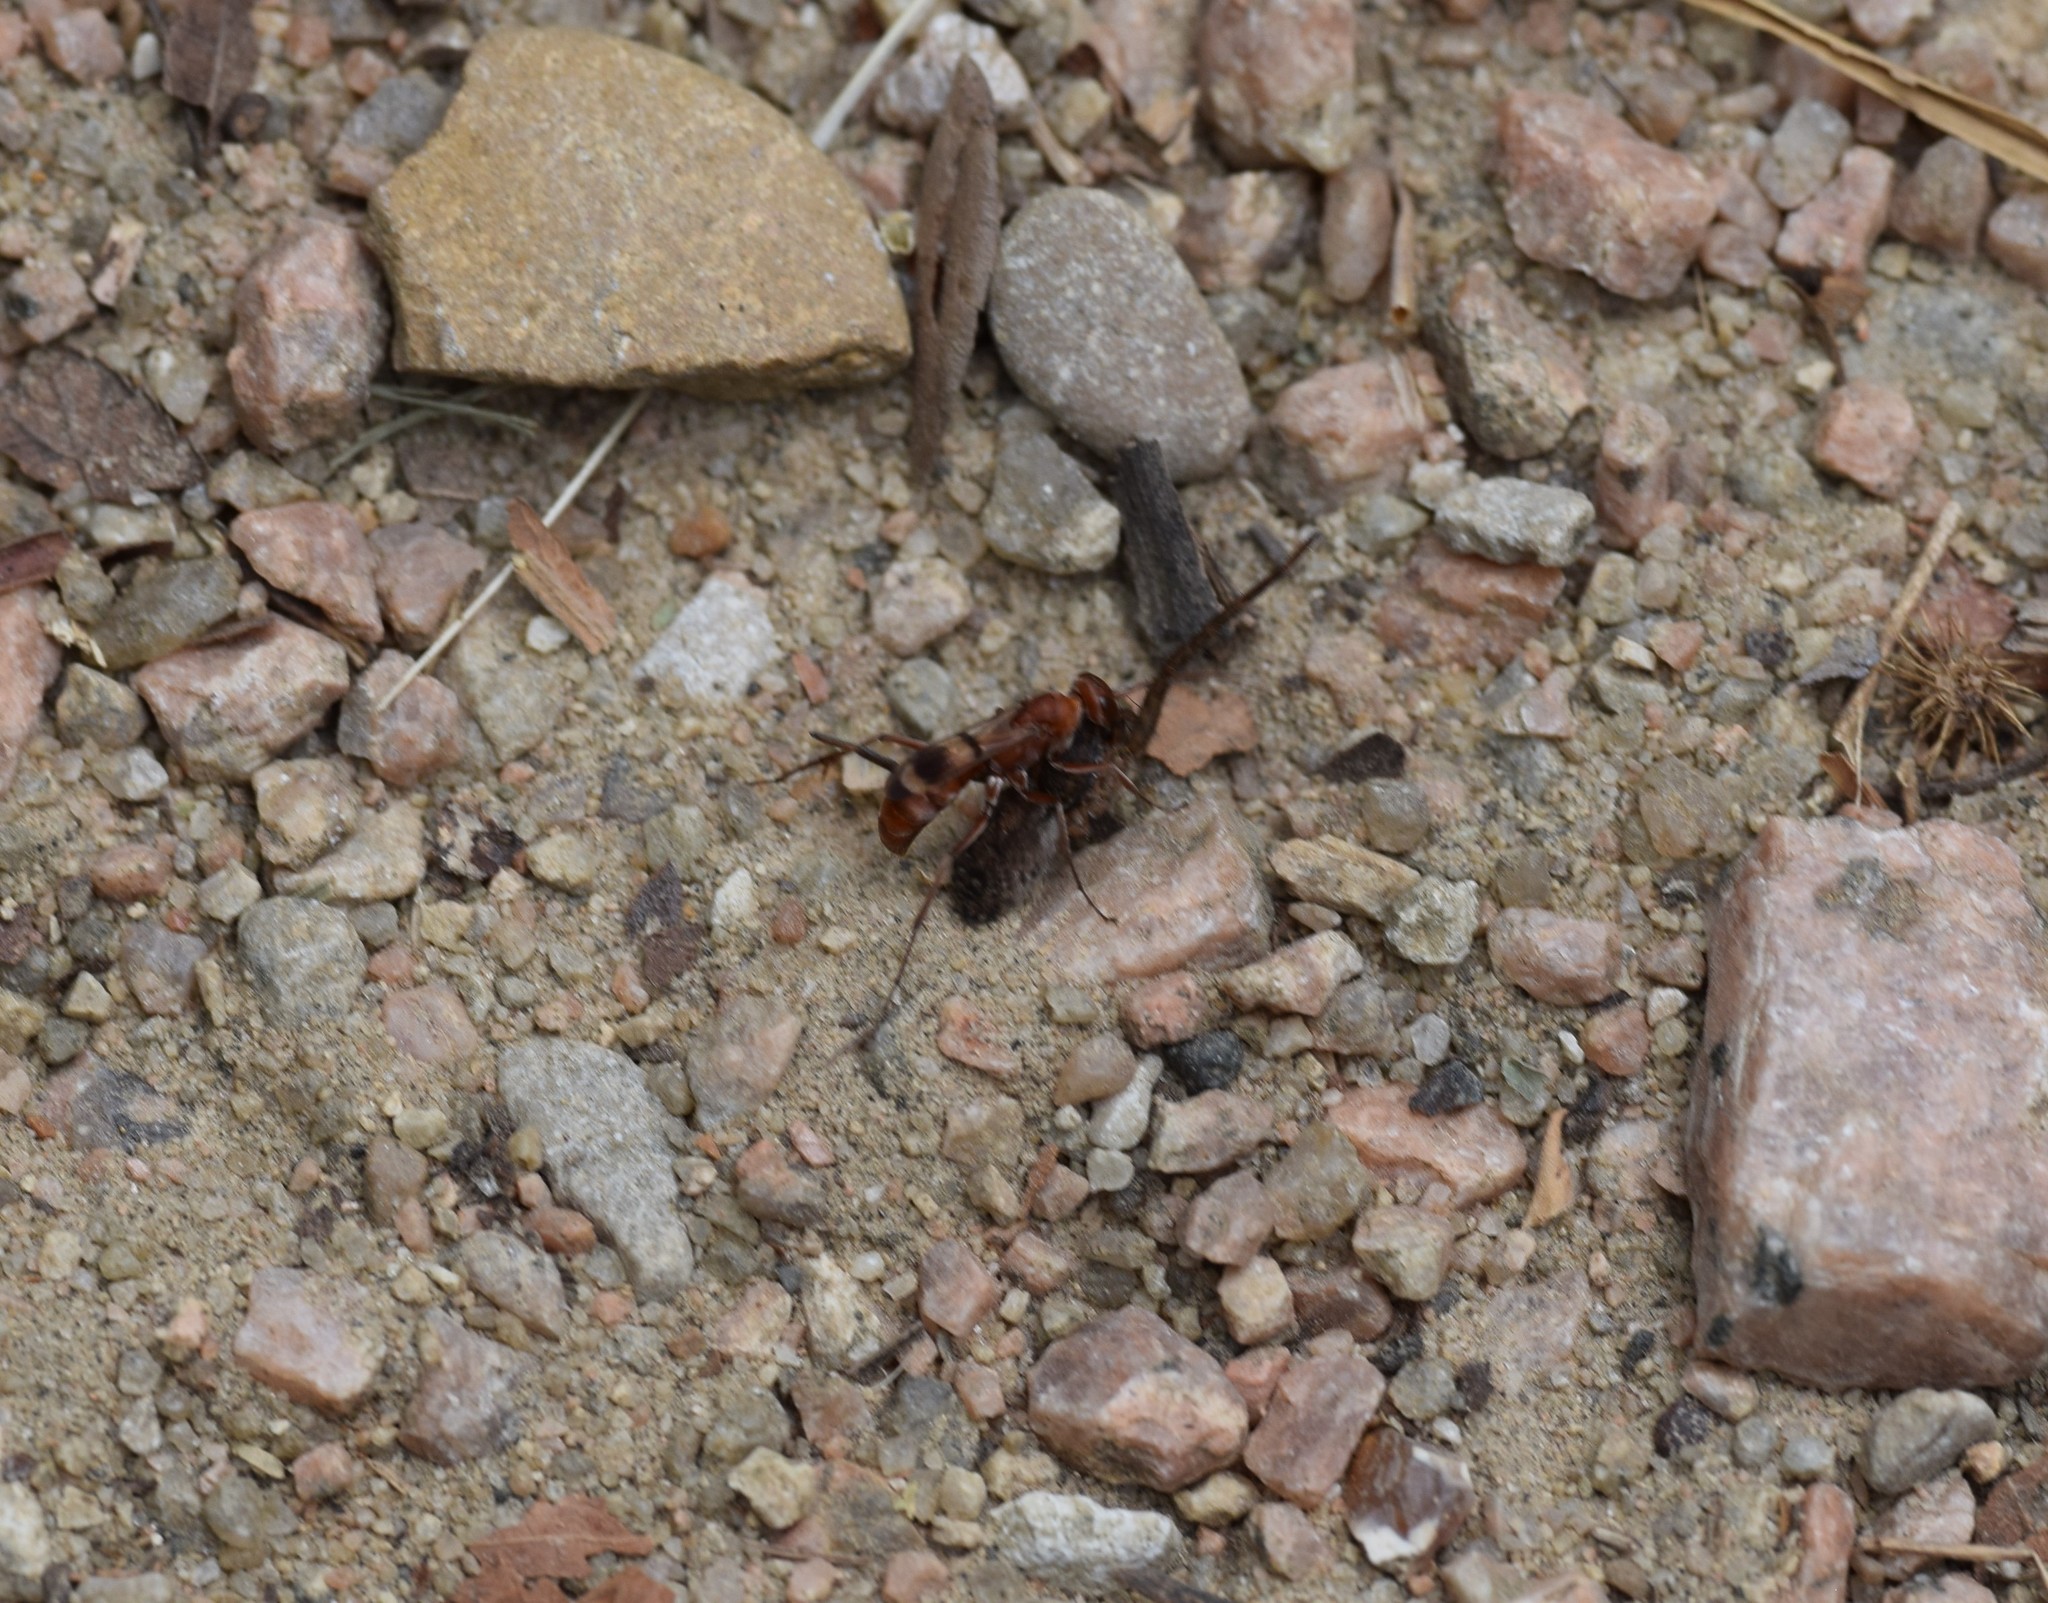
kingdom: Animalia
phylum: Arthropoda
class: Insecta
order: Hymenoptera
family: Pompilidae
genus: Ageniella
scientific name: Ageniella accepta
